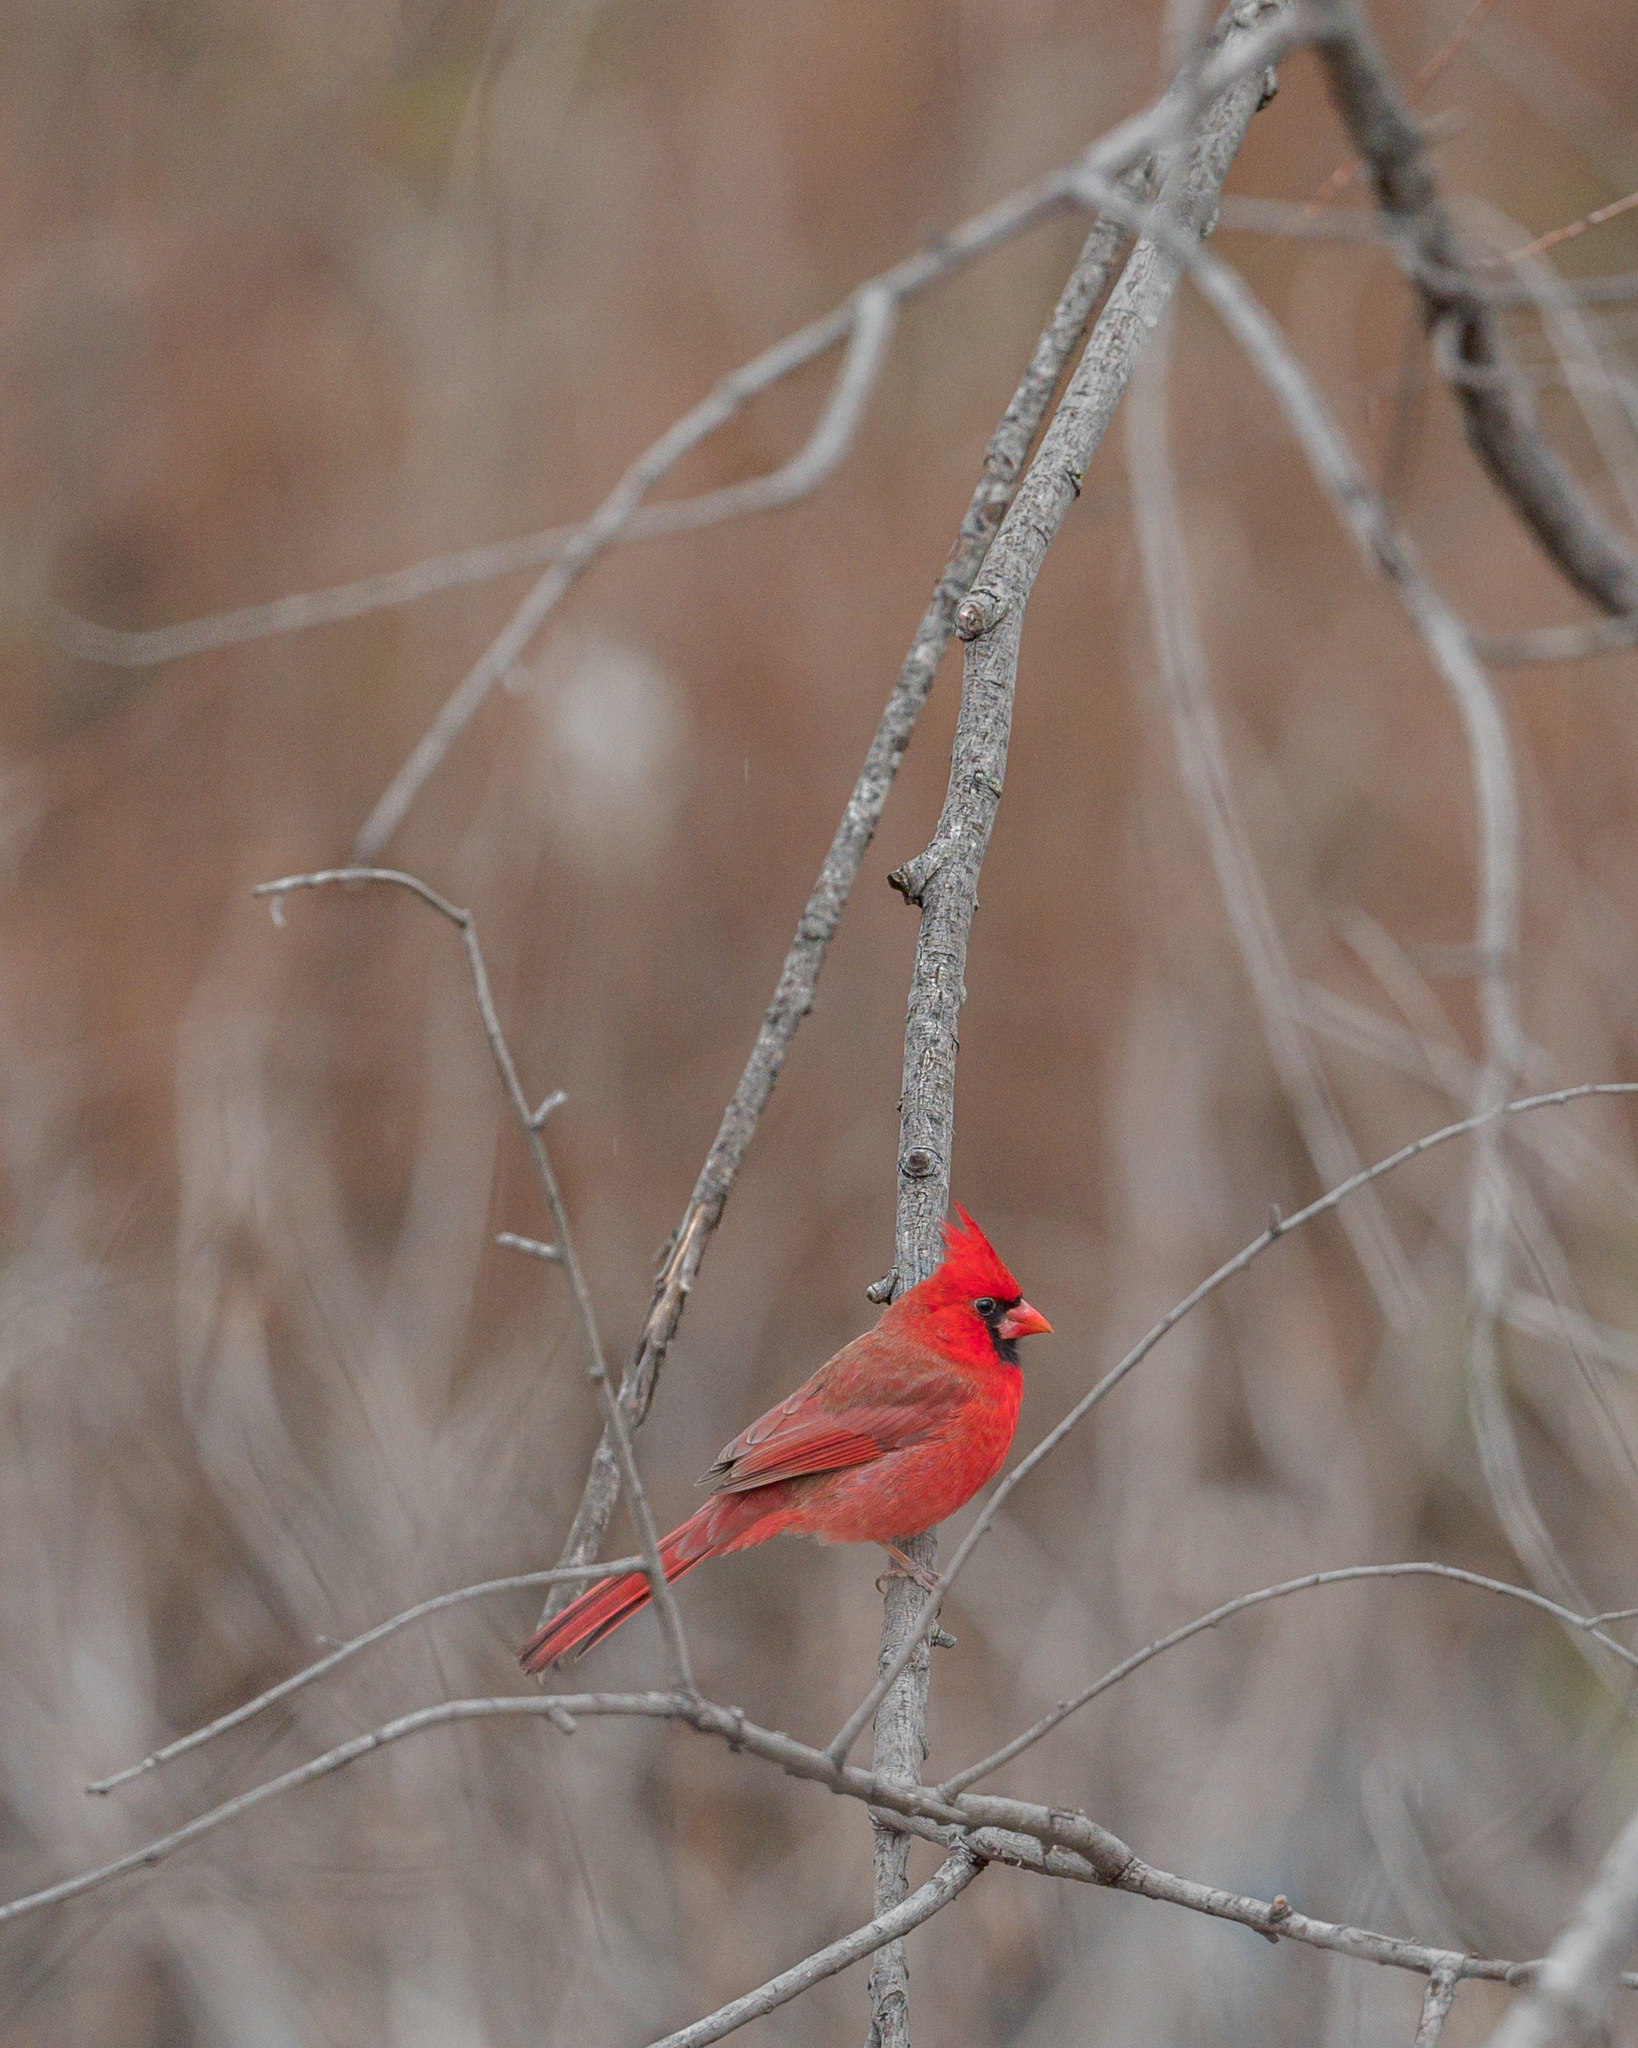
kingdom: Animalia
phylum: Chordata
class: Aves
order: Passeriformes
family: Cardinalidae
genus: Cardinalis
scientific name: Cardinalis cardinalis
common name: Northern cardinal
